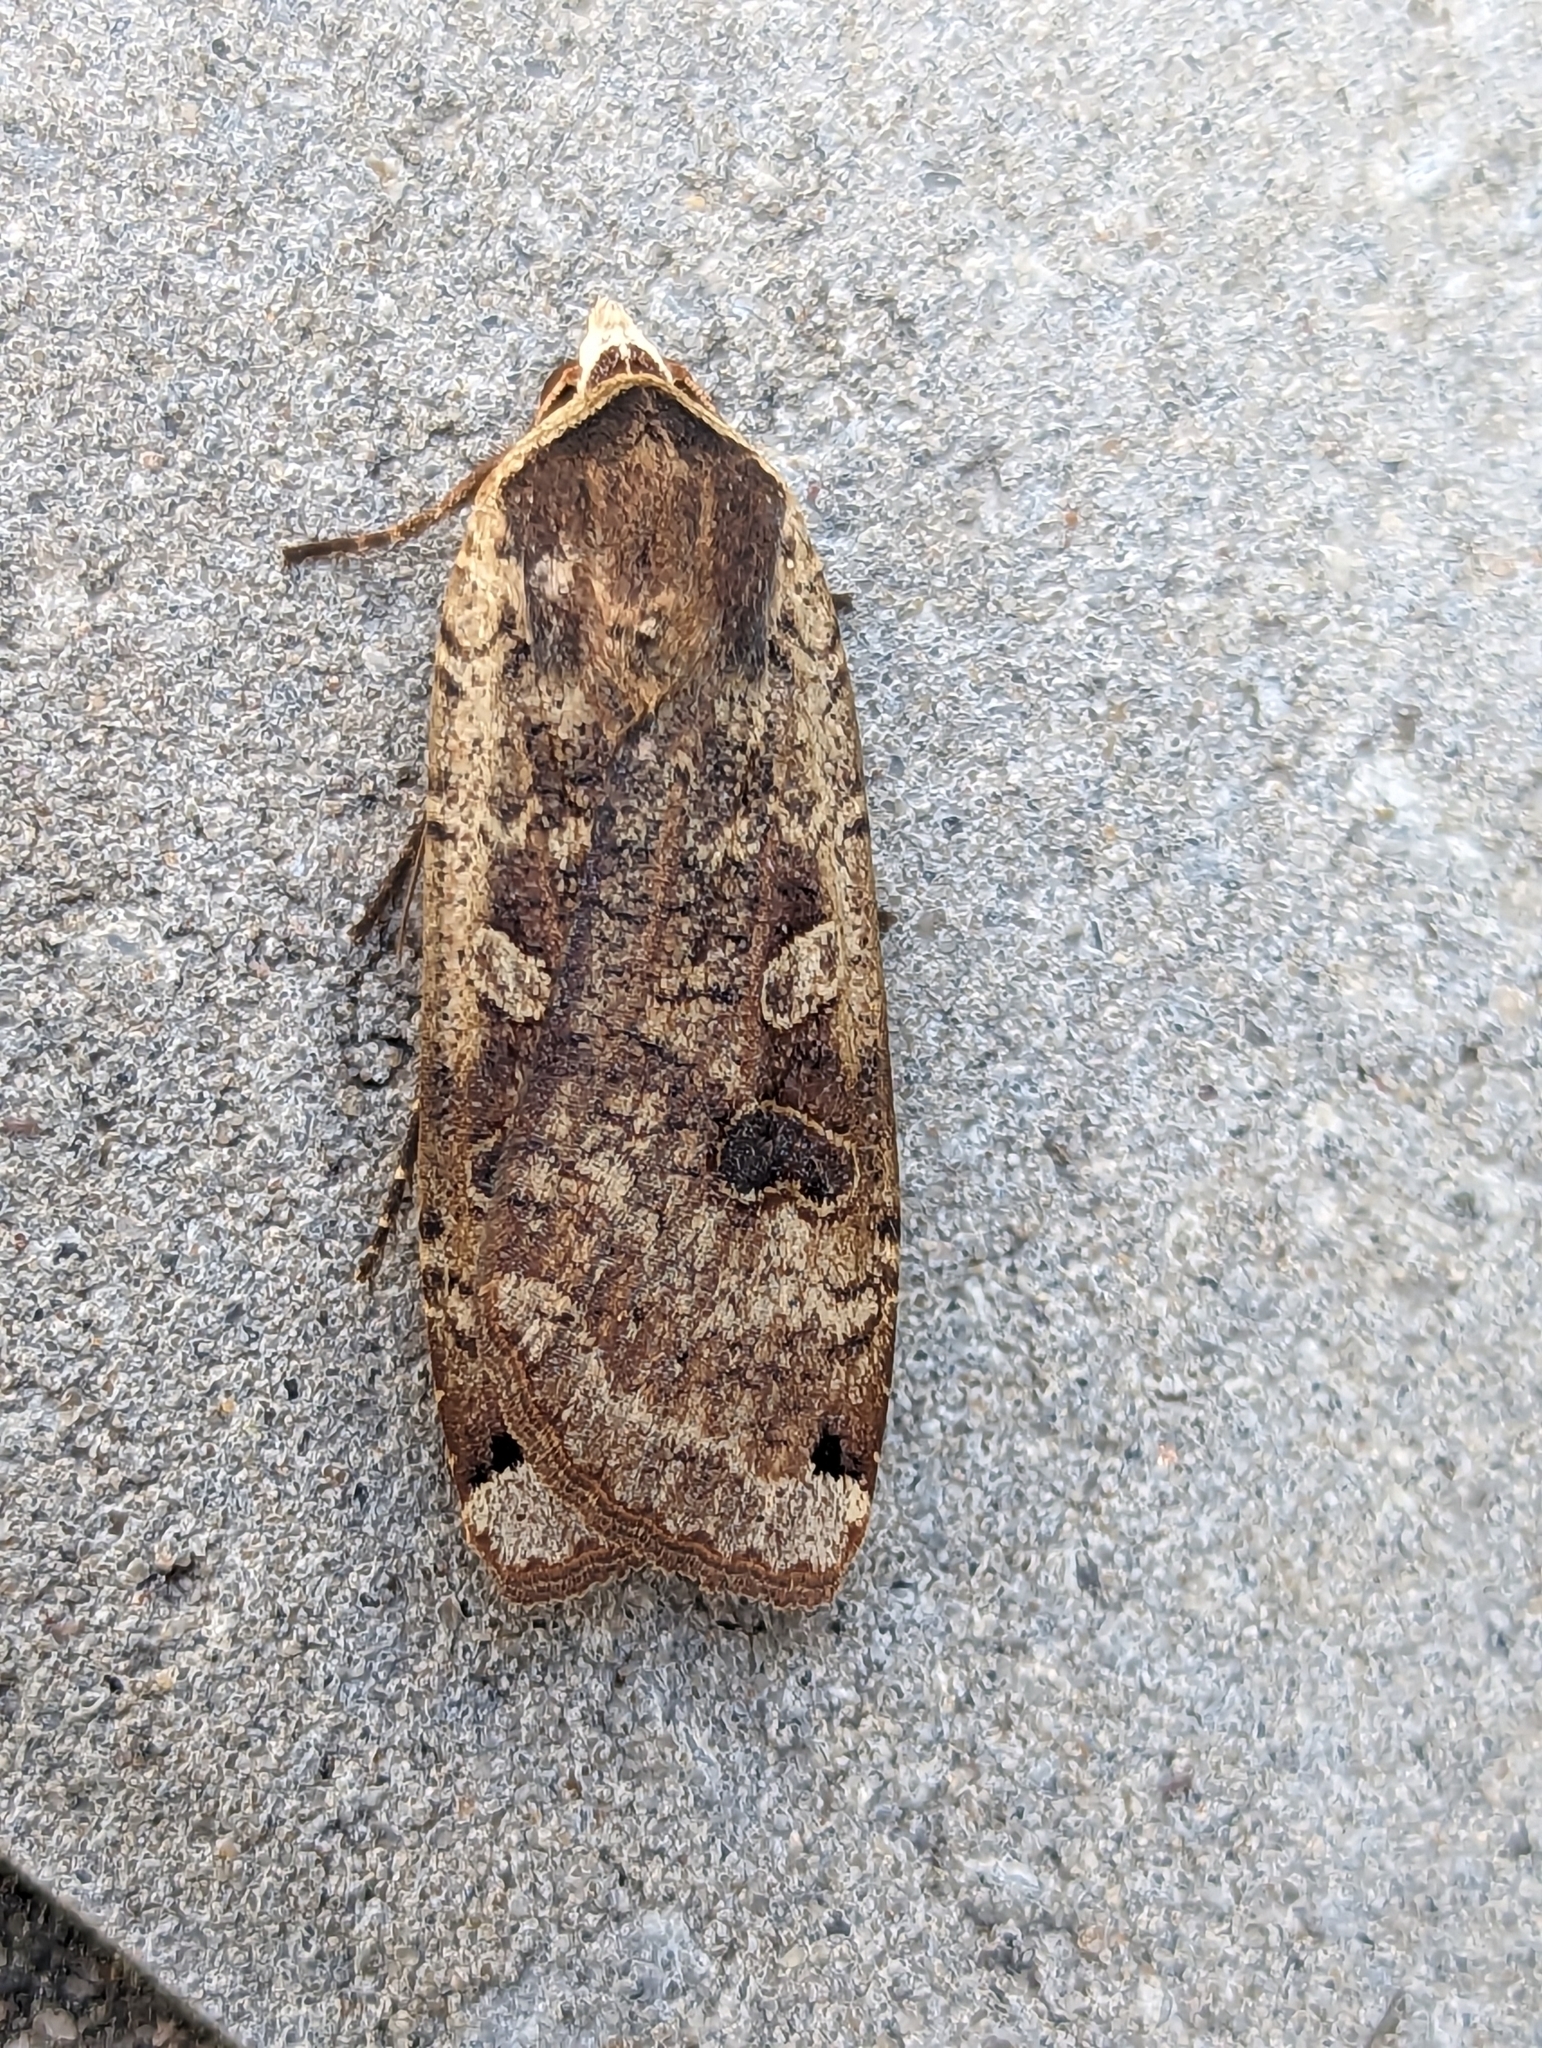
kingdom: Animalia
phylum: Arthropoda
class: Insecta
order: Lepidoptera
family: Noctuidae
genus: Noctua
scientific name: Noctua pronuba
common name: Large yellow underwing
